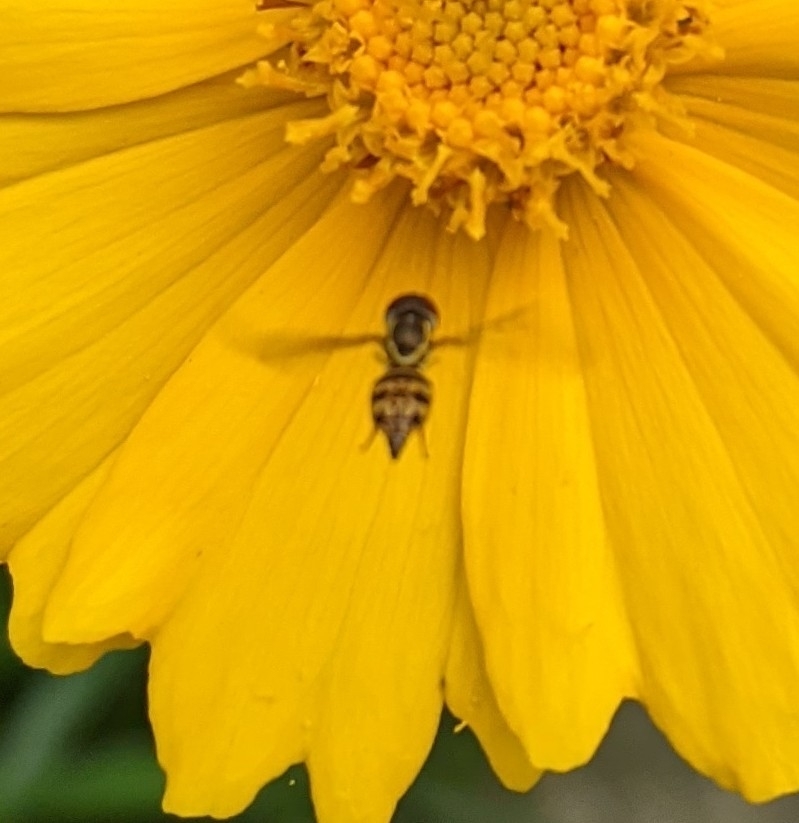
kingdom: Animalia
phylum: Arthropoda
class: Insecta
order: Diptera
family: Syrphidae
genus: Toxomerus
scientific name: Toxomerus geminatus
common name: Eastern calligrapher
